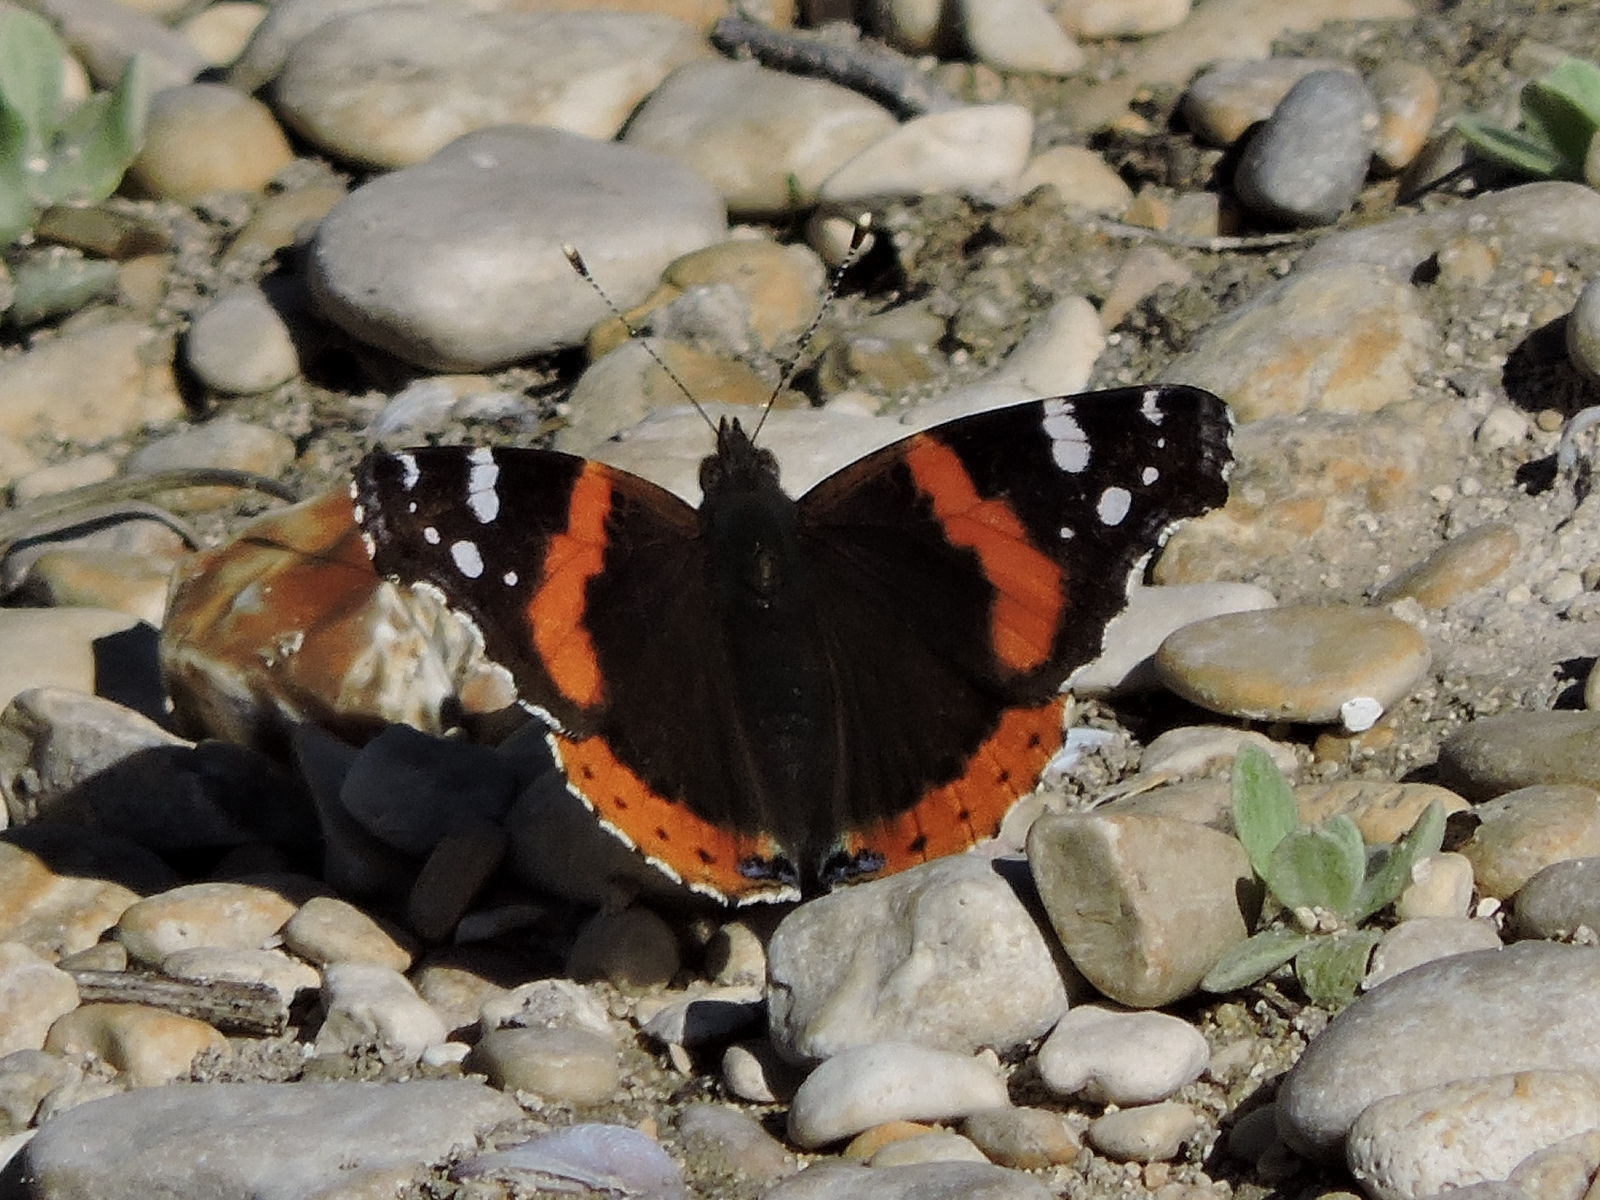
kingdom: Animalia
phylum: Arthropoda
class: Insecta
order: Lepidoptera
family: Nymphalidae
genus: Vanessa
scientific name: Vanessa atalanta
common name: Red admiral
